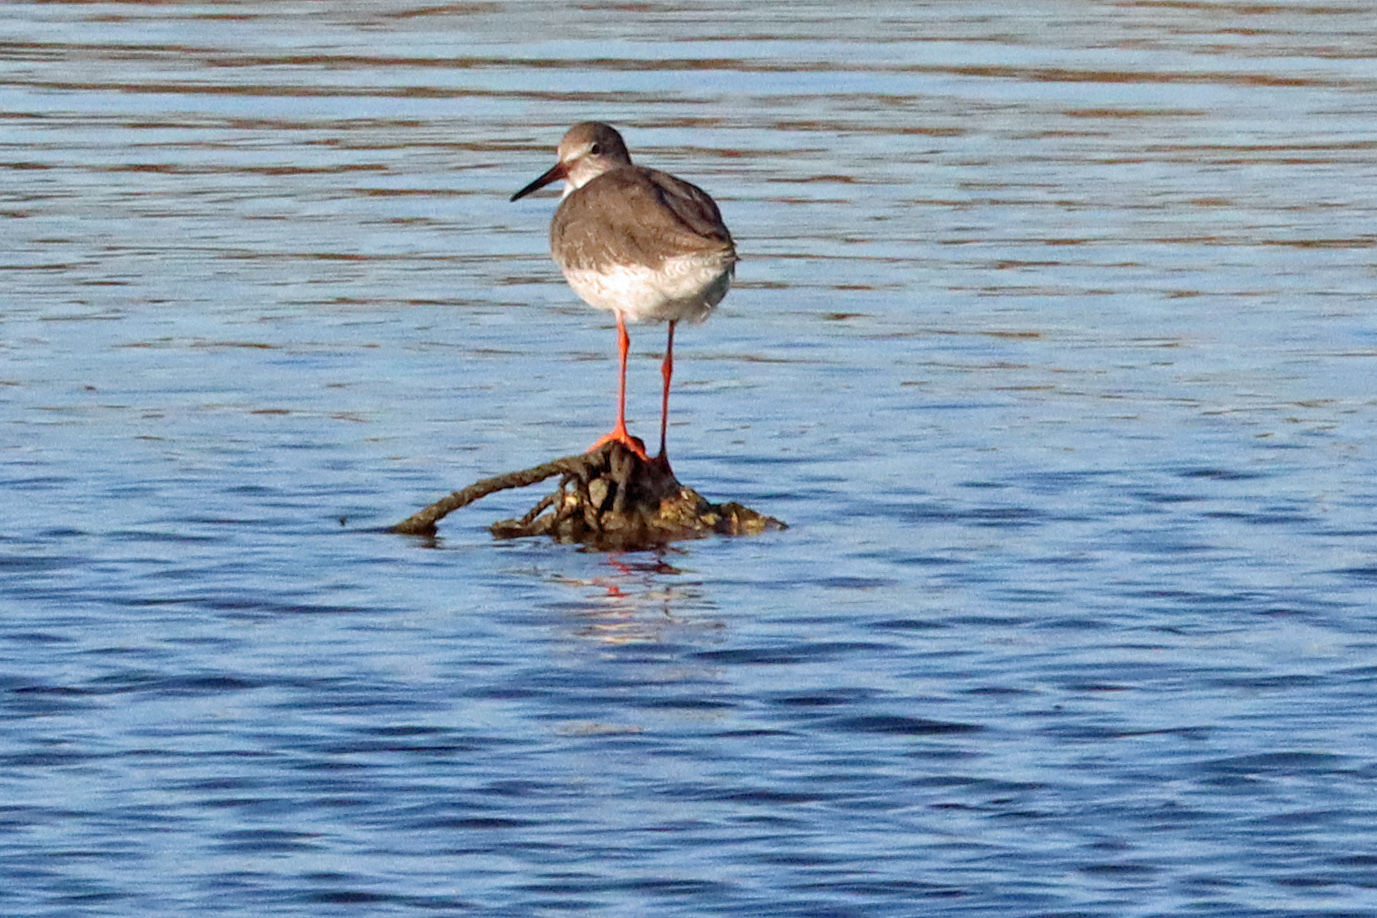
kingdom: Animalia
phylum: Chordata
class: Aves
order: Charadriiformes
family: Scolopacidae
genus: Tringa
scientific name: Tringa totanus
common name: Common redshank
